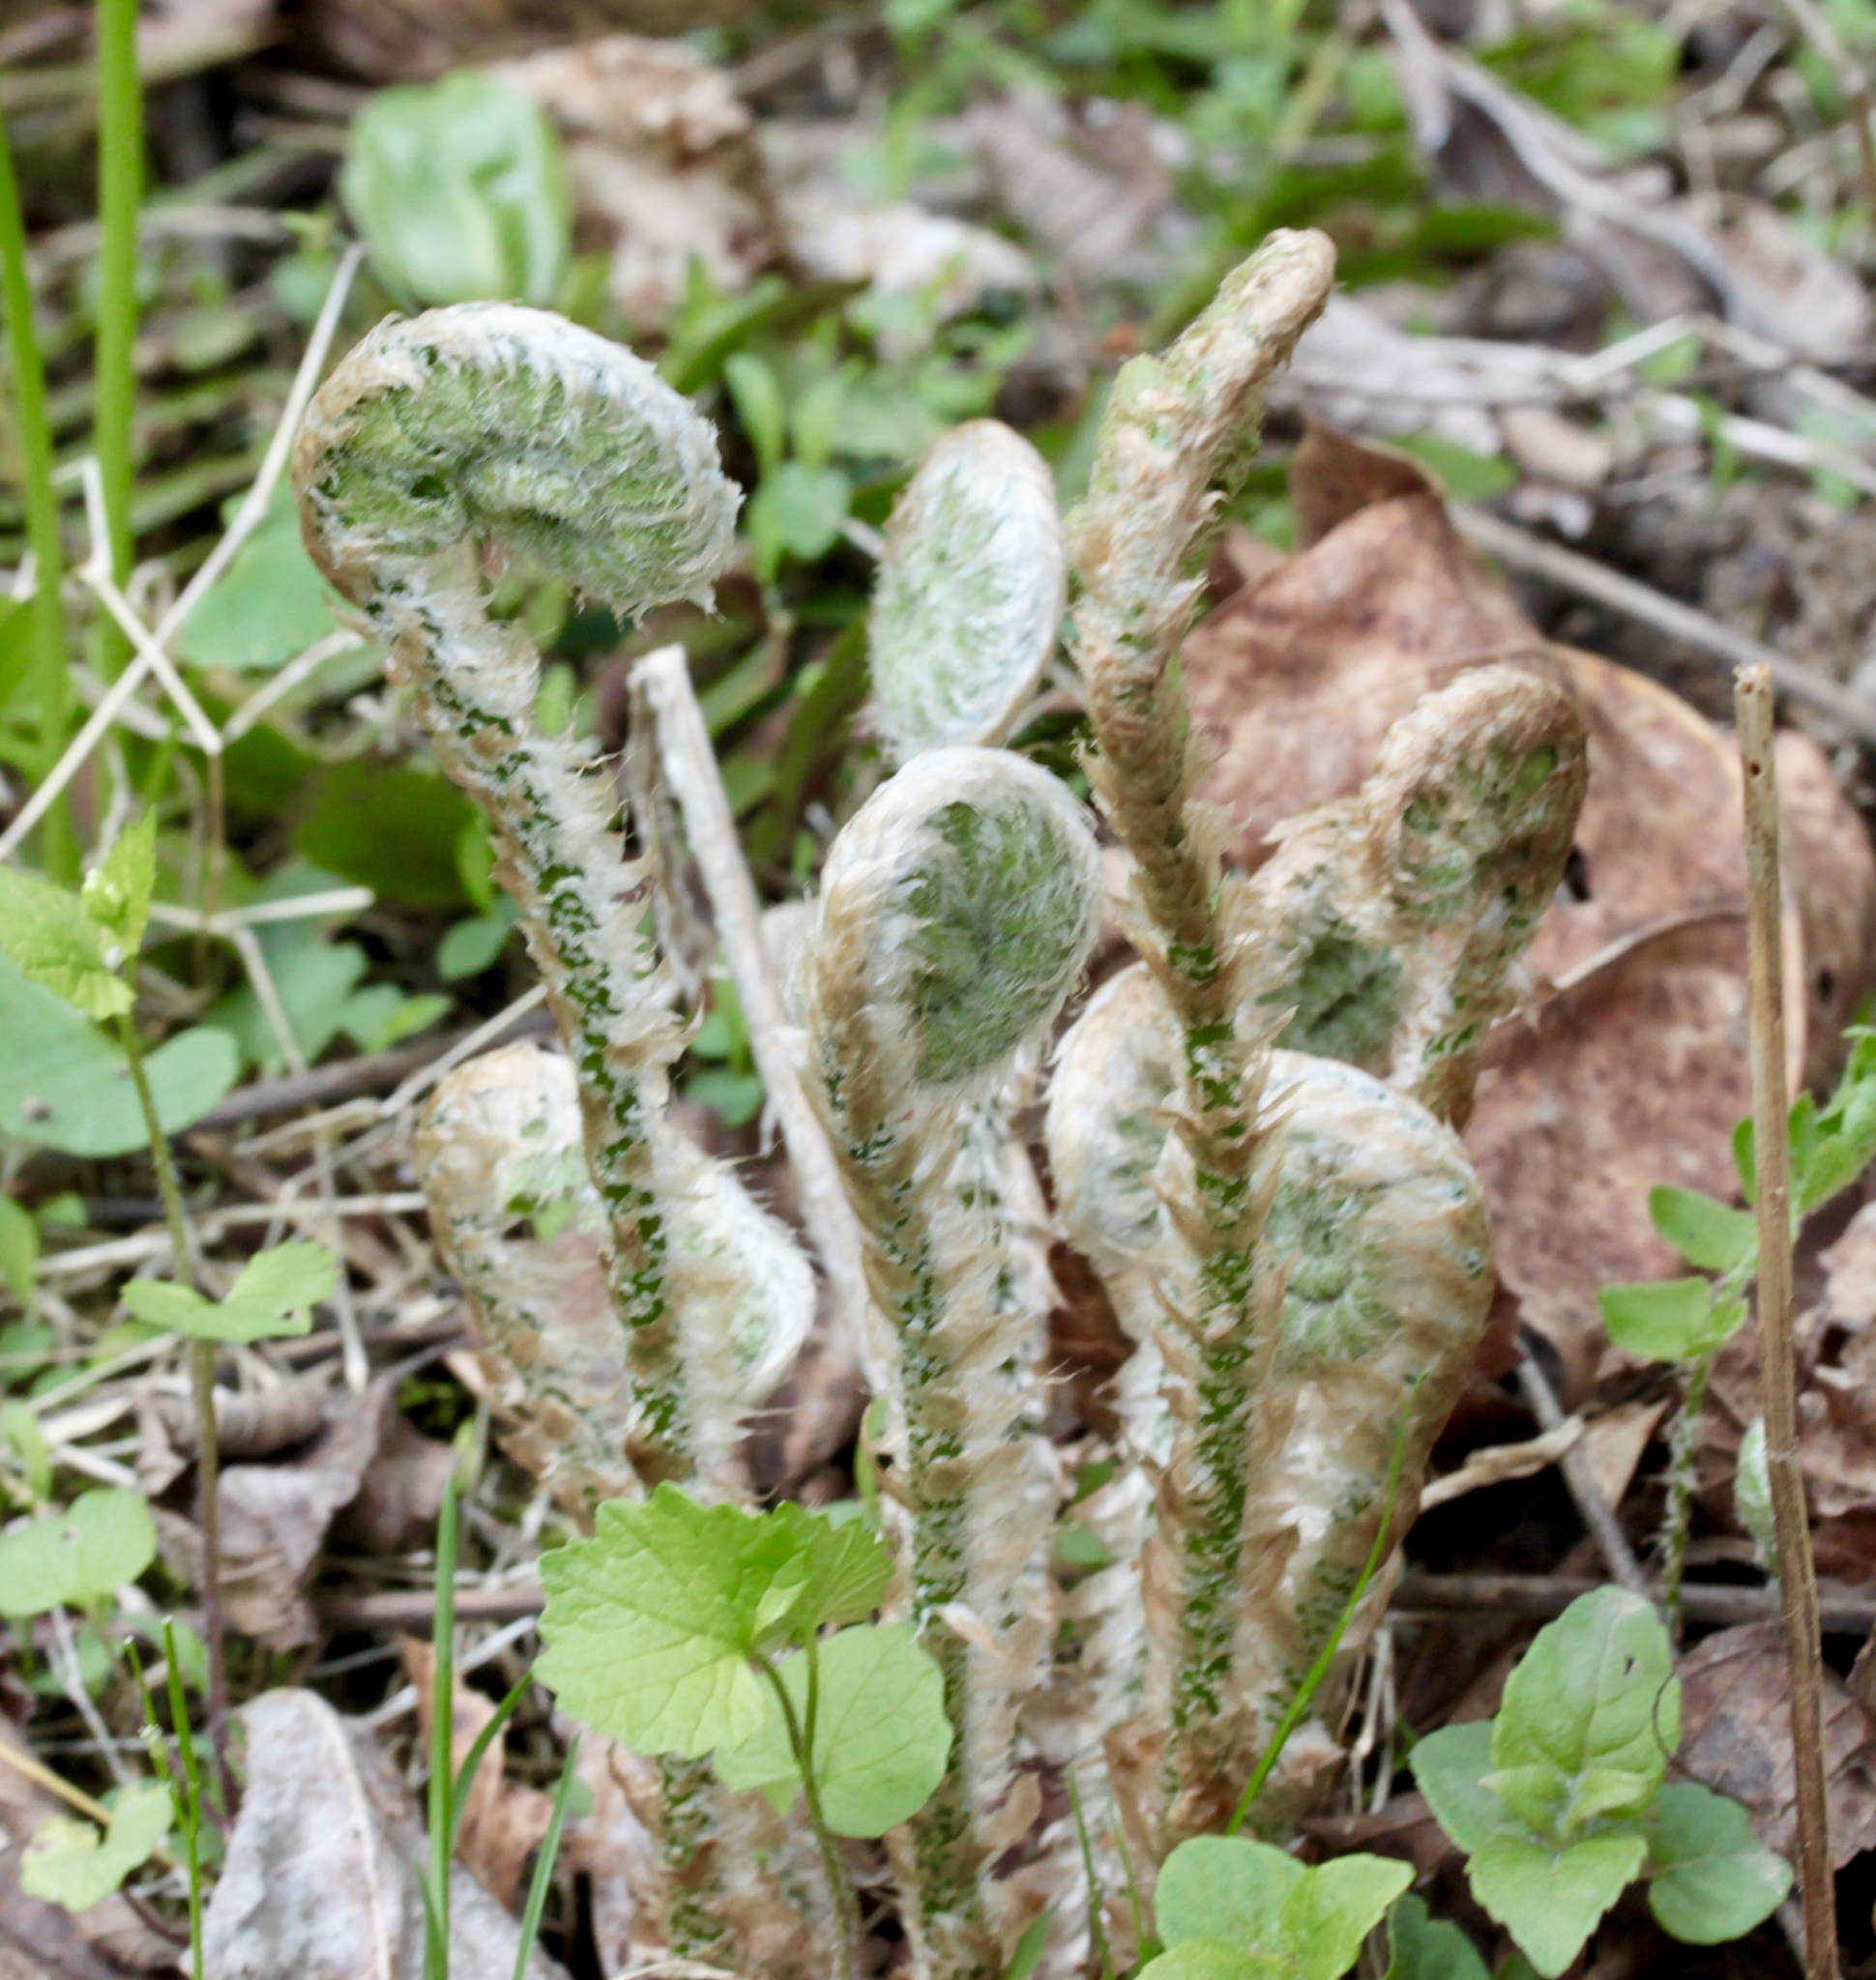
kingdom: Plantae
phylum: Tracheophyta
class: Polypodiopsida
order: Polypodiales
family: Dryopteridaceae
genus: Polystichum
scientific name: Polystichum acrostichoides
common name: Christmas fern
